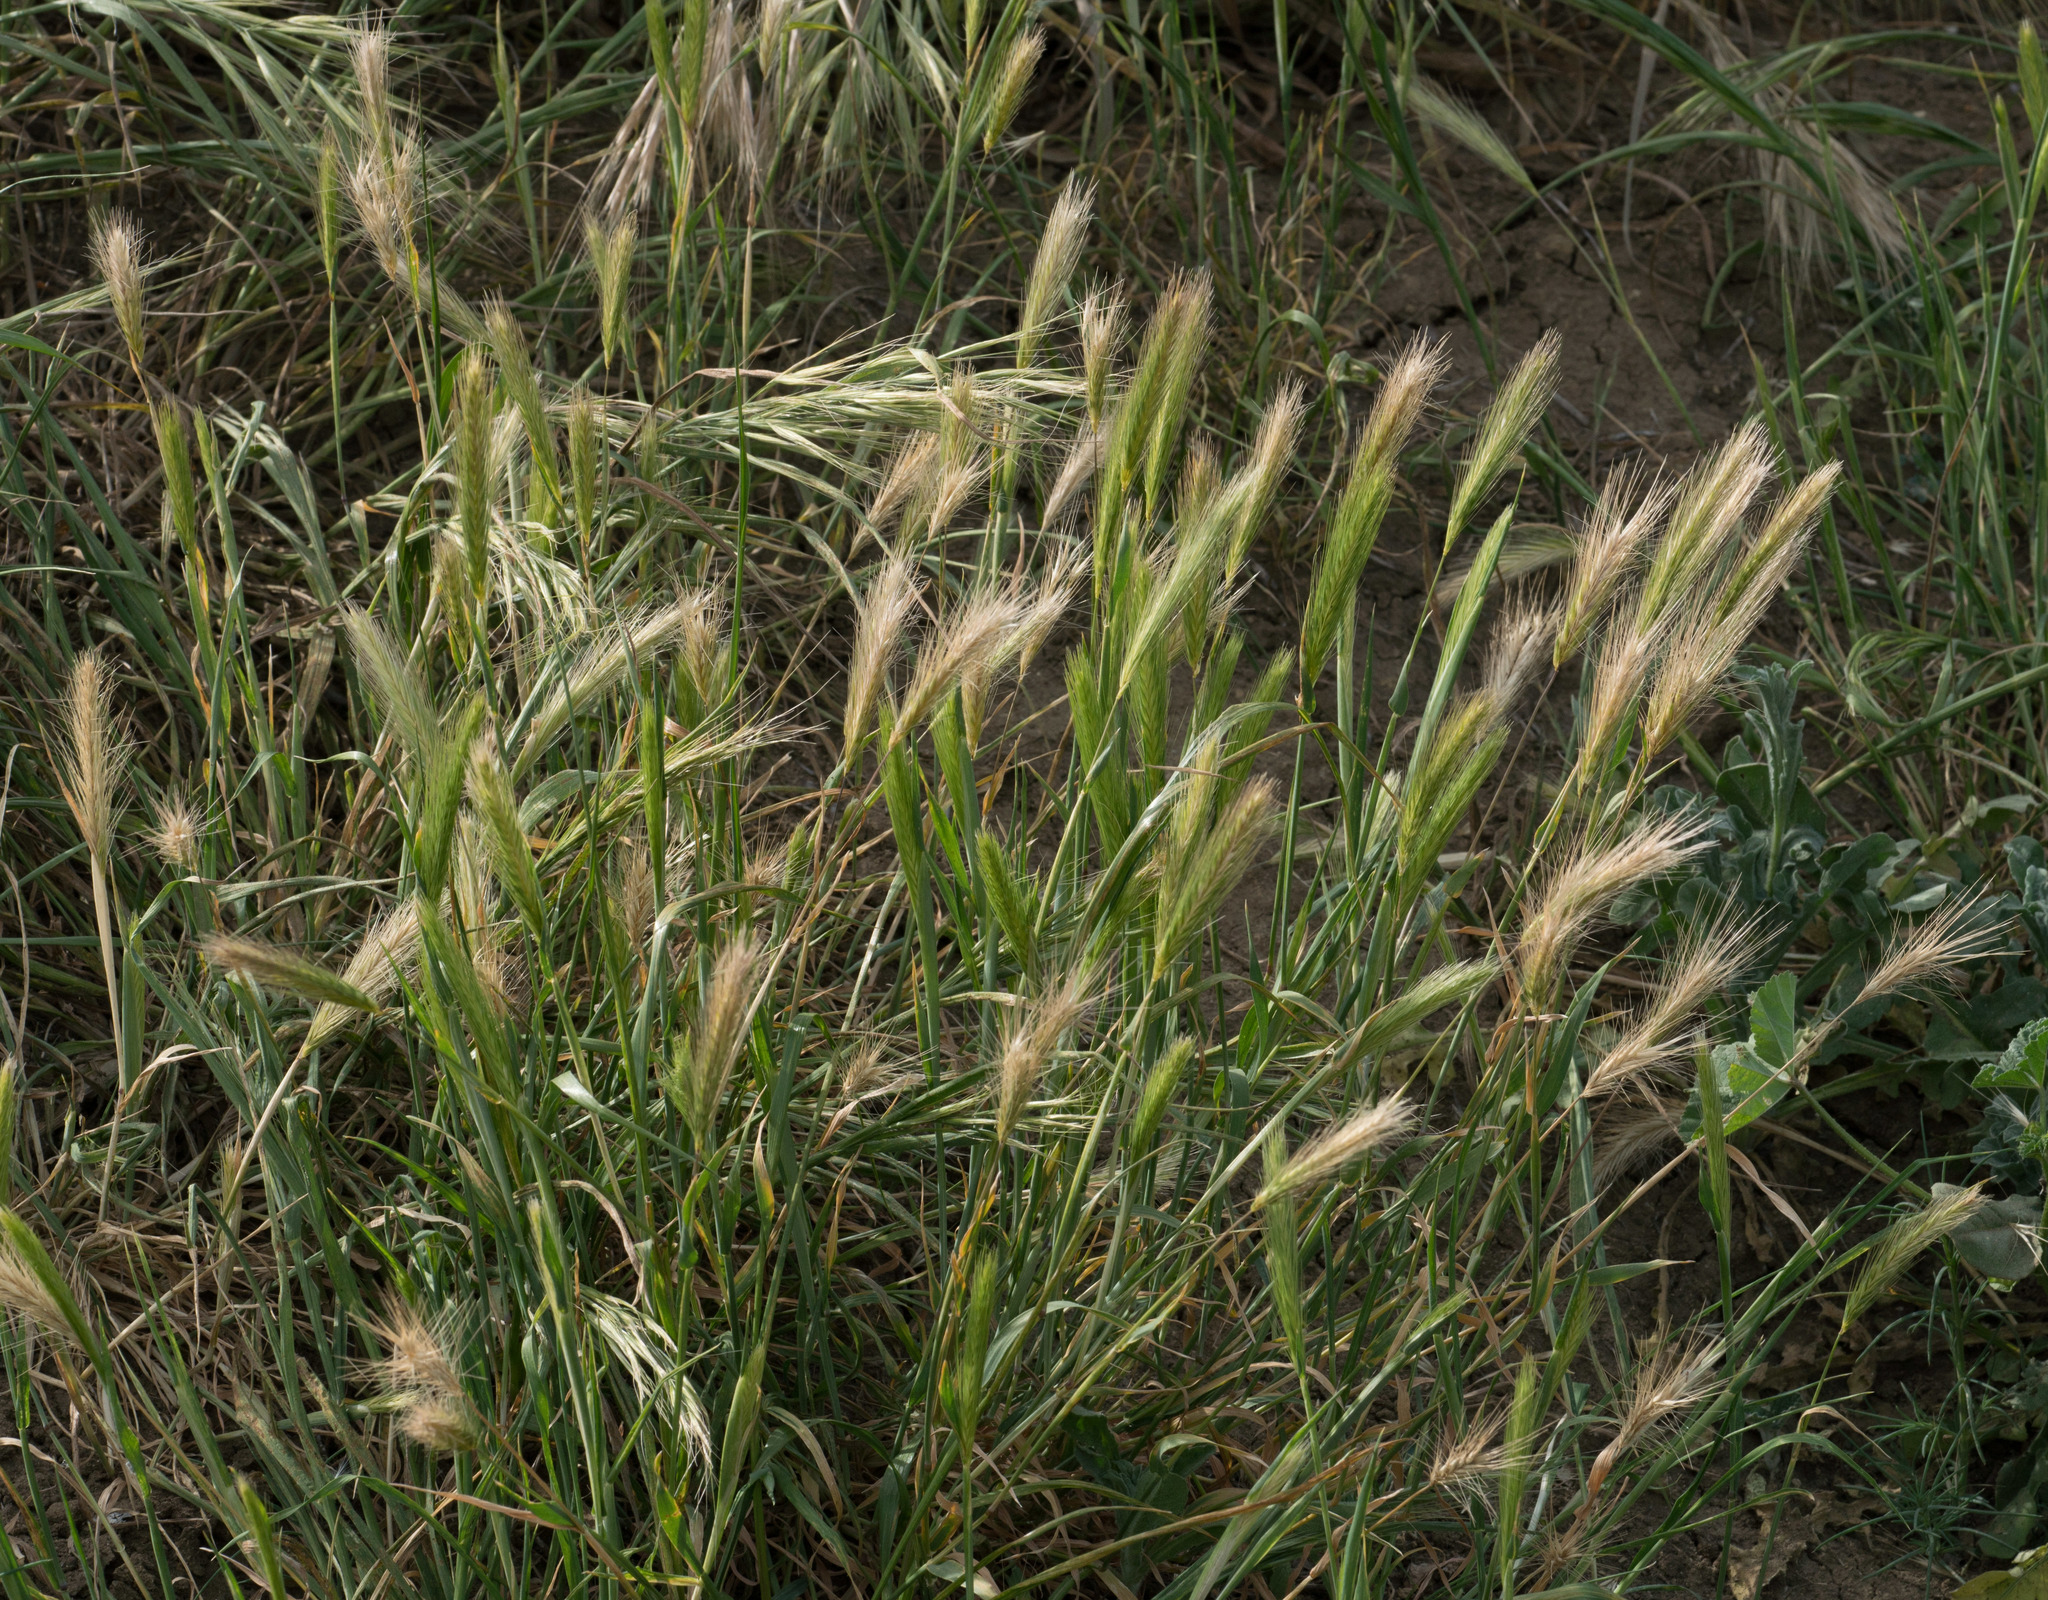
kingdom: Plantae
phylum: Tracheophyta
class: Liliopsida
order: Poales
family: Poaceae
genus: Hordeum
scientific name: Hordeum murinum
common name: Wall barley
